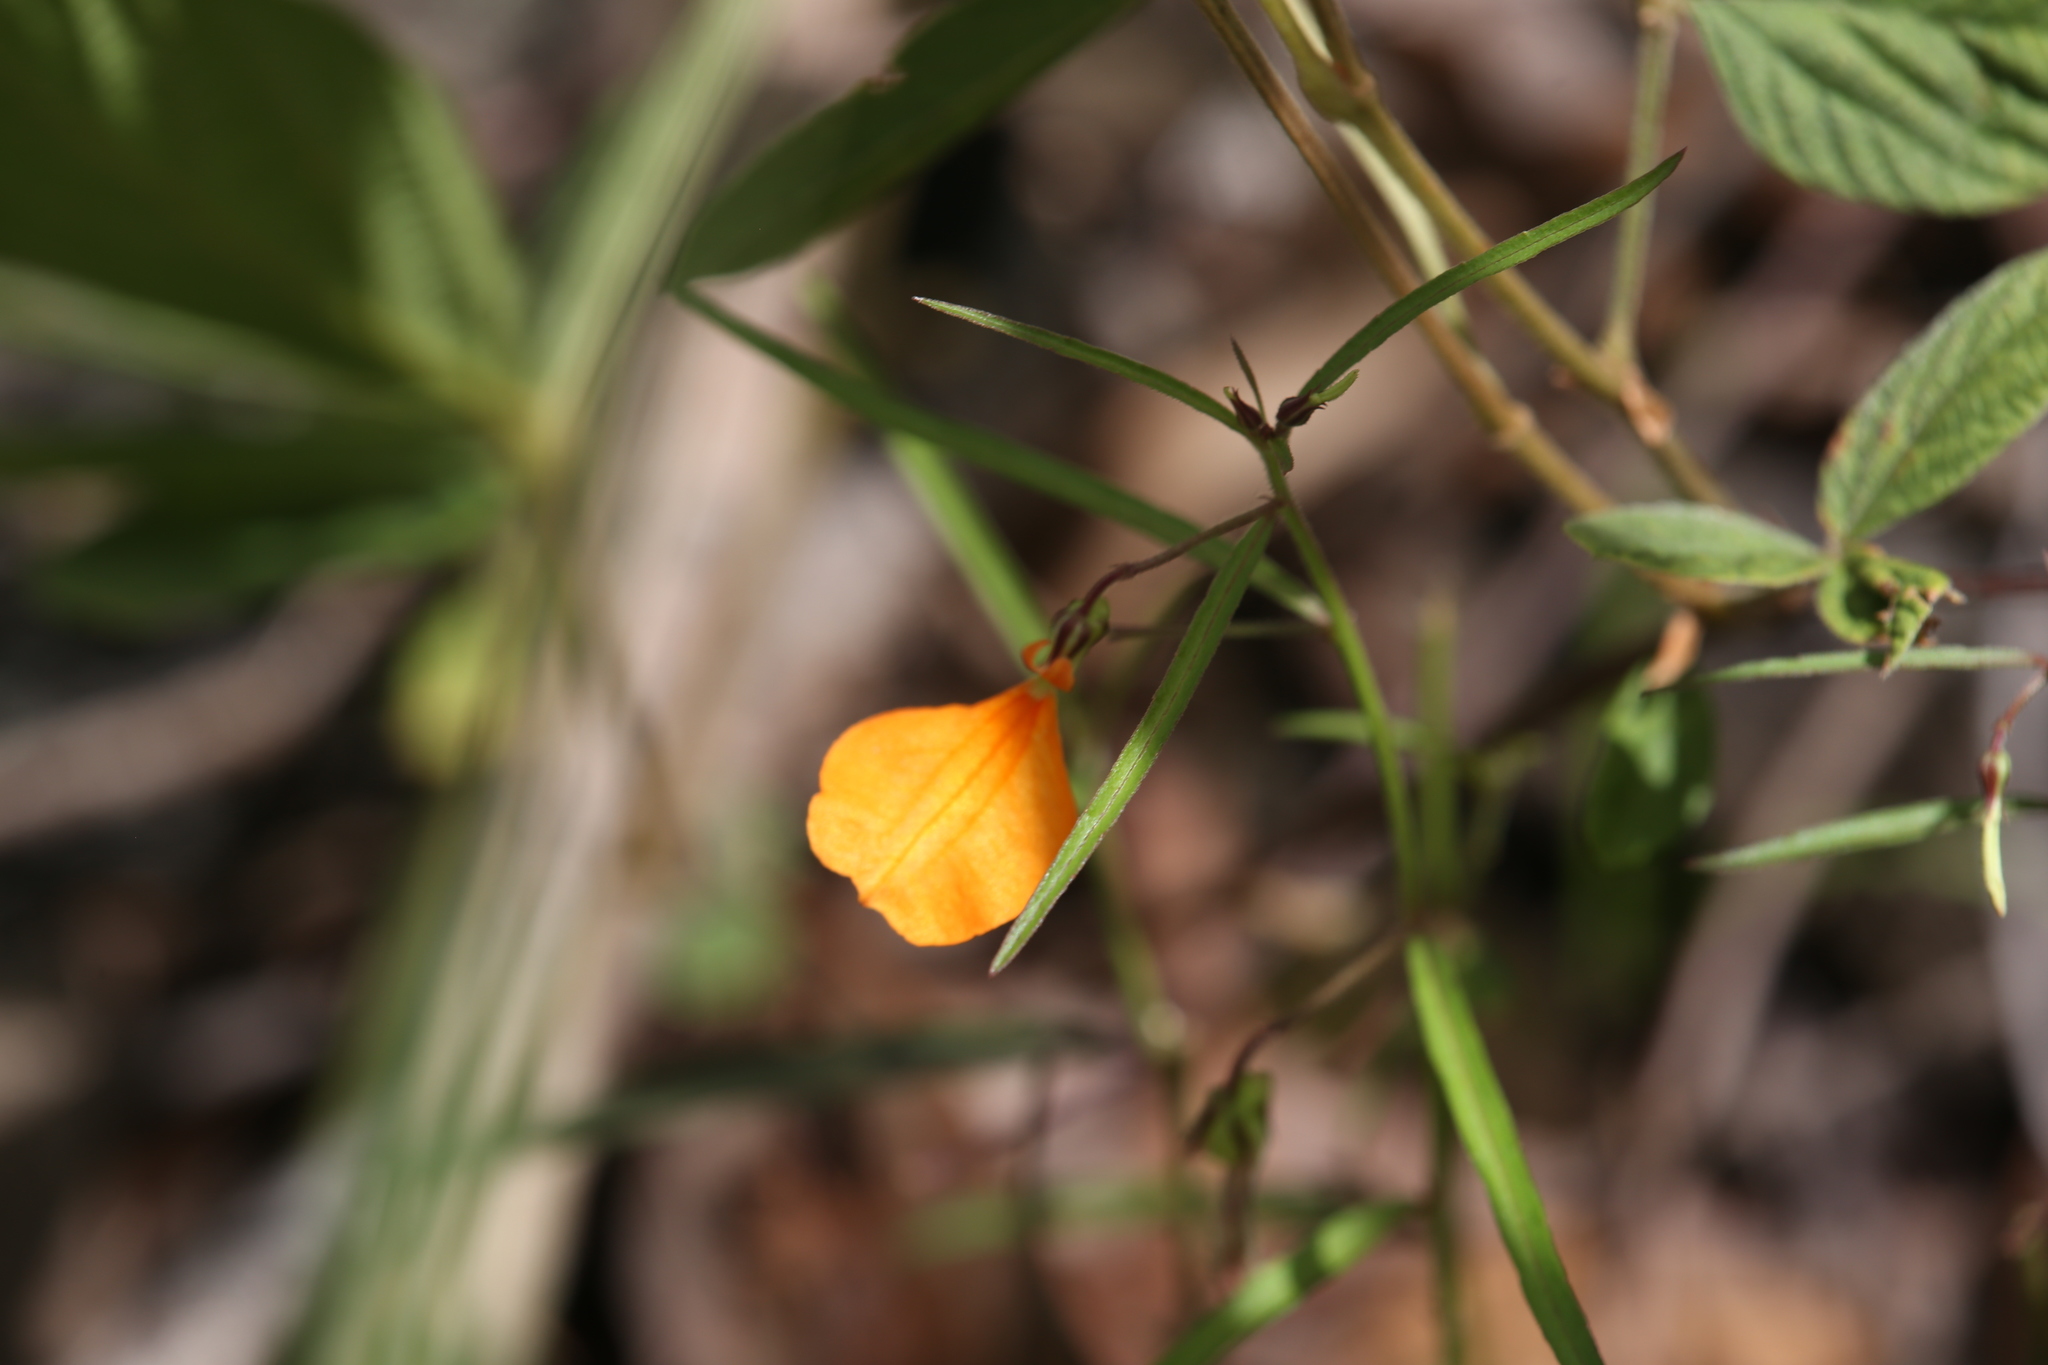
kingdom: Plantae
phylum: Tracheophyta
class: Magnoliopsida
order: Malpighiales
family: Violaceae
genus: Pigea
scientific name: Pigea stellarioides
